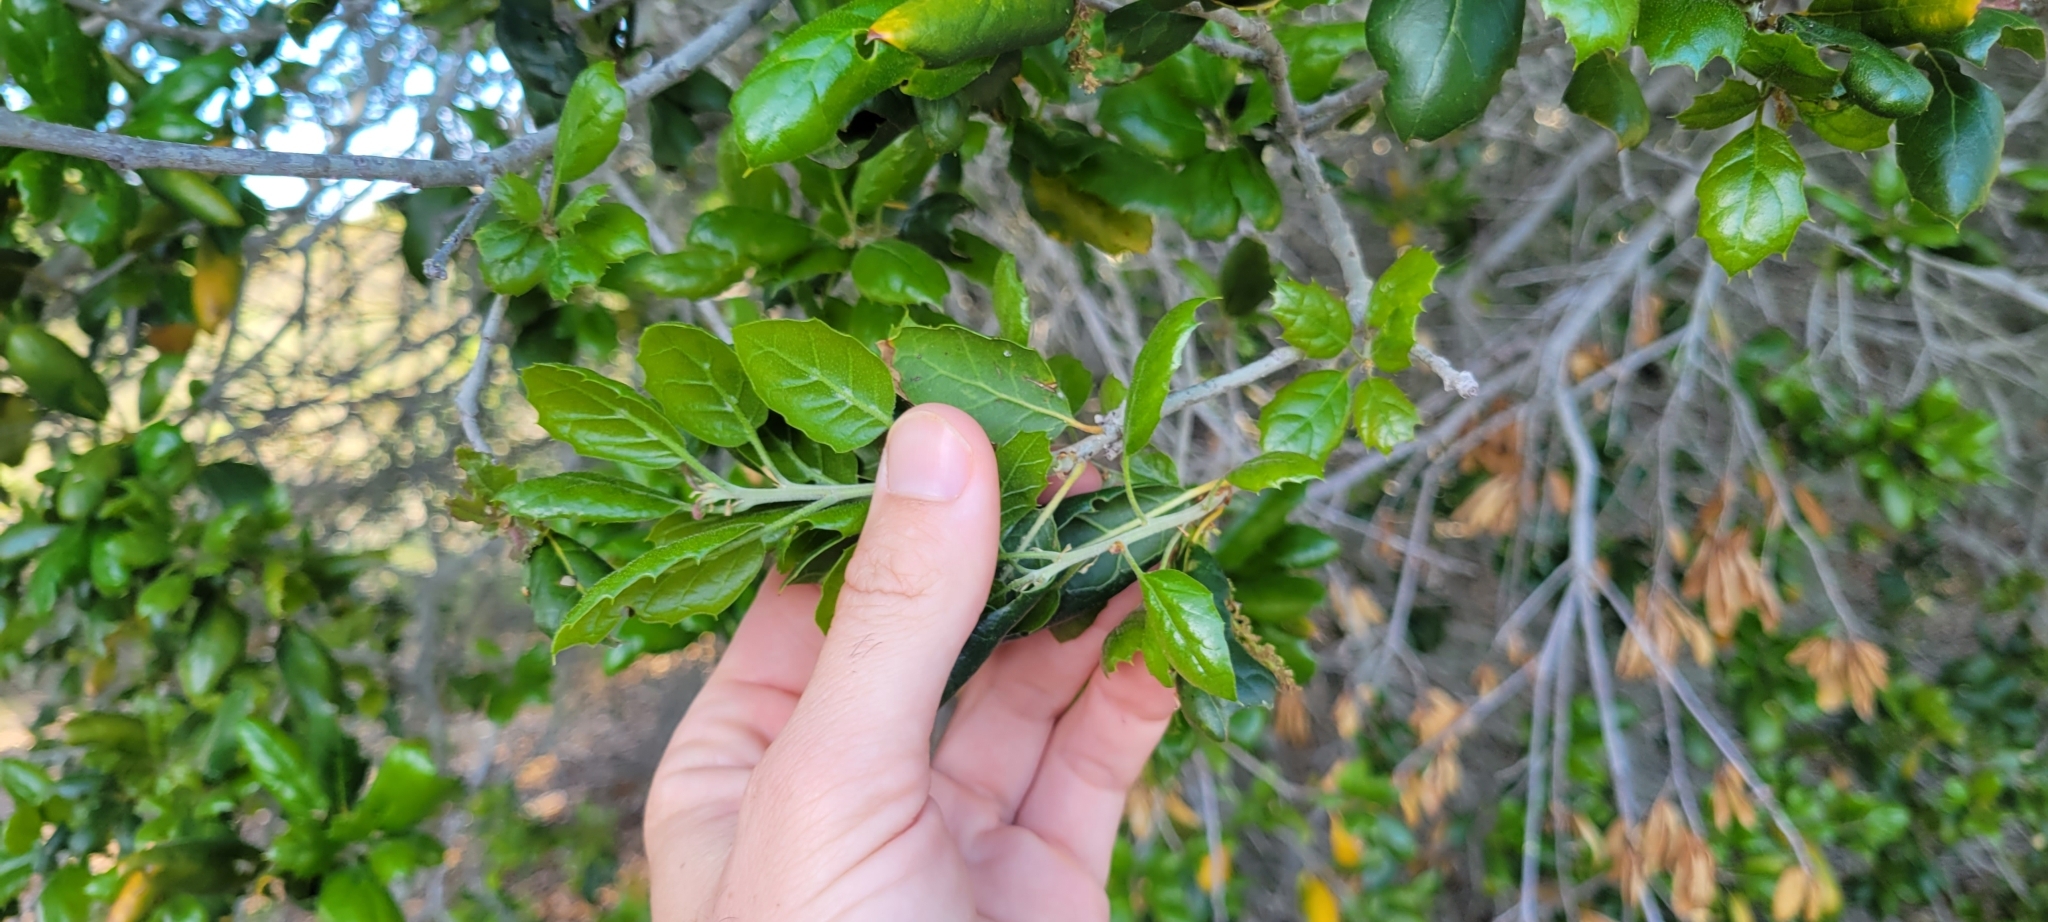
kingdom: Plantae
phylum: Tracheophyta
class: Magnoliopsida
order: Fagales
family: Fagaceae
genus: Quercus
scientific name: Quercus agrifolia
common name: California live oak
